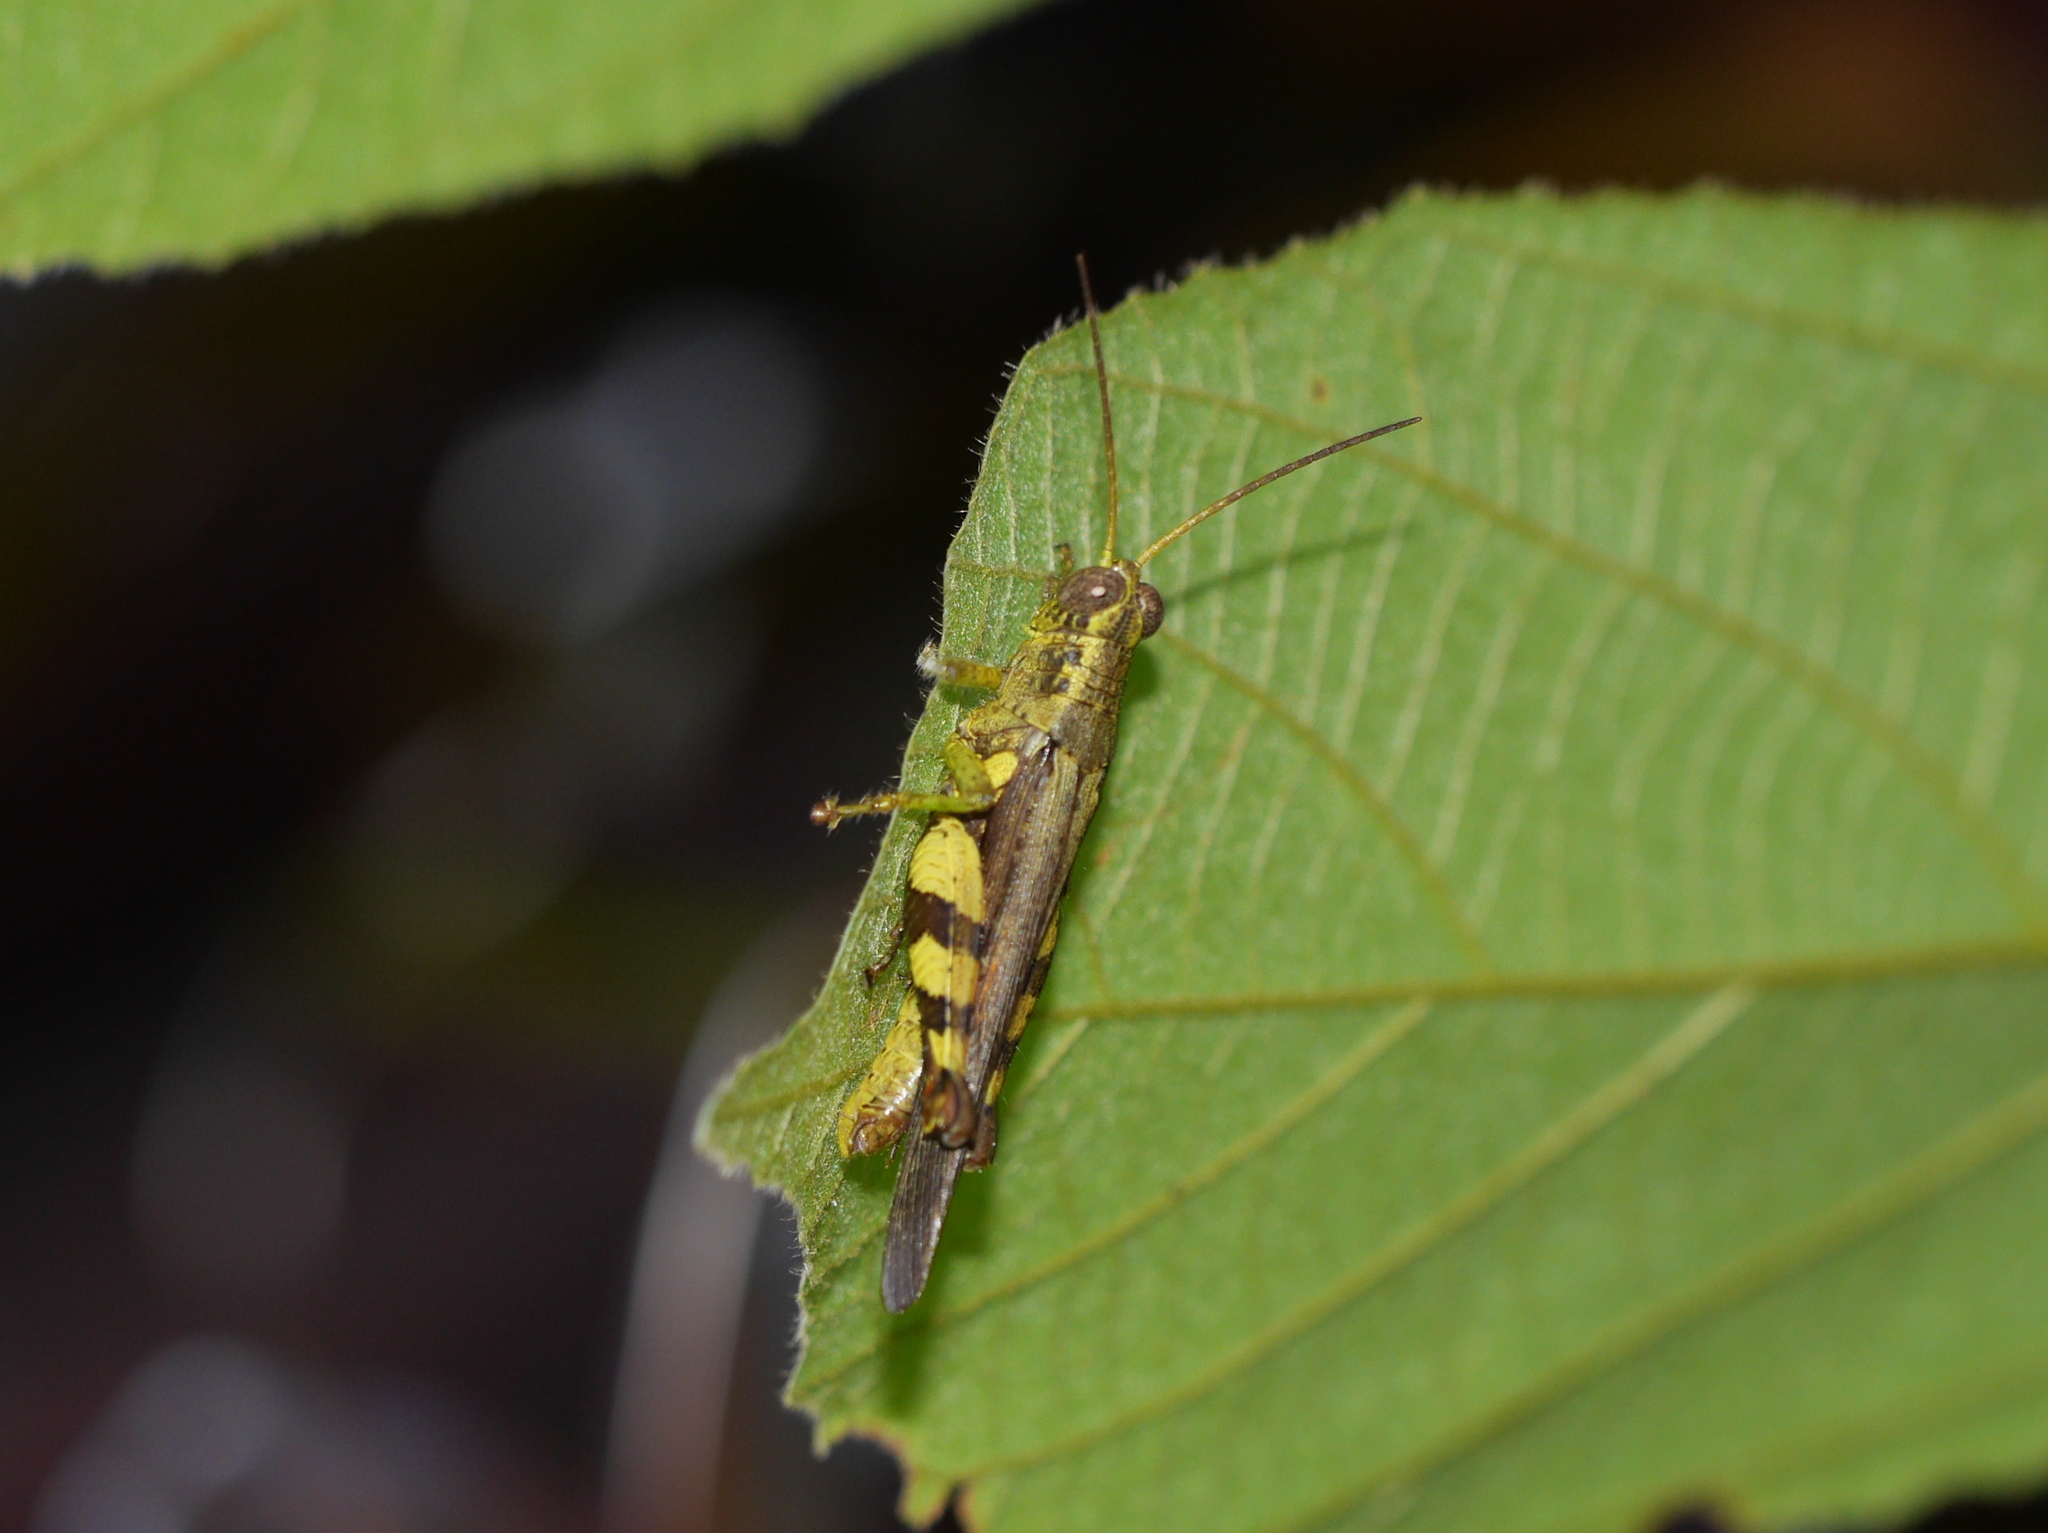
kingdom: Animalia
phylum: Arthropoda
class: Insecta
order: Orthoptera
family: Acrididae
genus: Xenocatantops
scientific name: Xenocatantops humile
